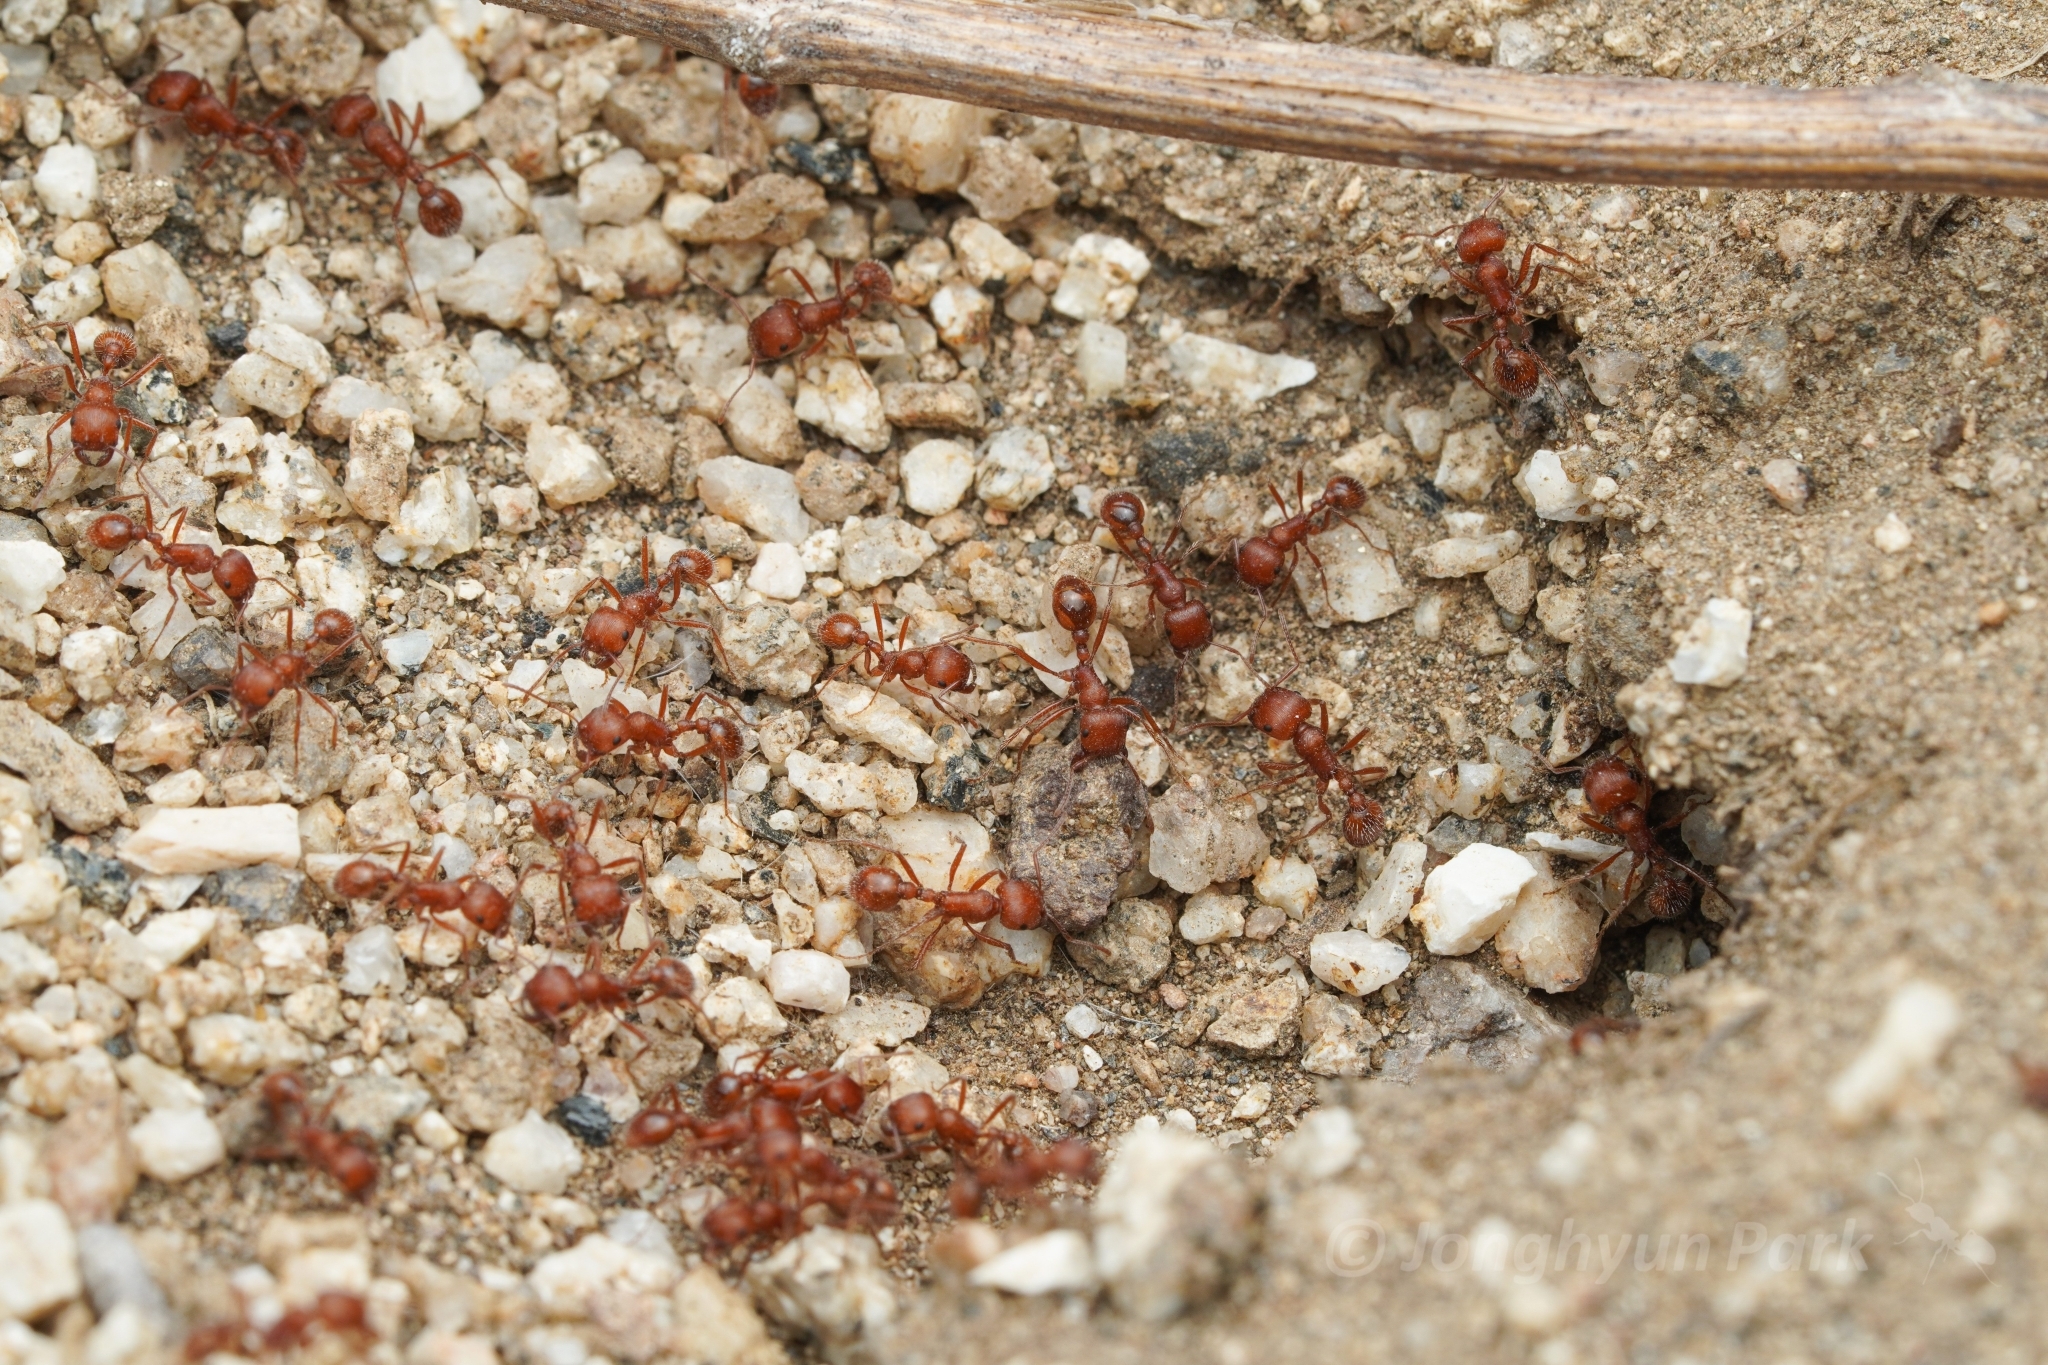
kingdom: Animalia
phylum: Arthropoda
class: Insecta
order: Hymenoptera
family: Formicidae
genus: Pogonomyrmex
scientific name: Pogonomyrmex subnitidus
